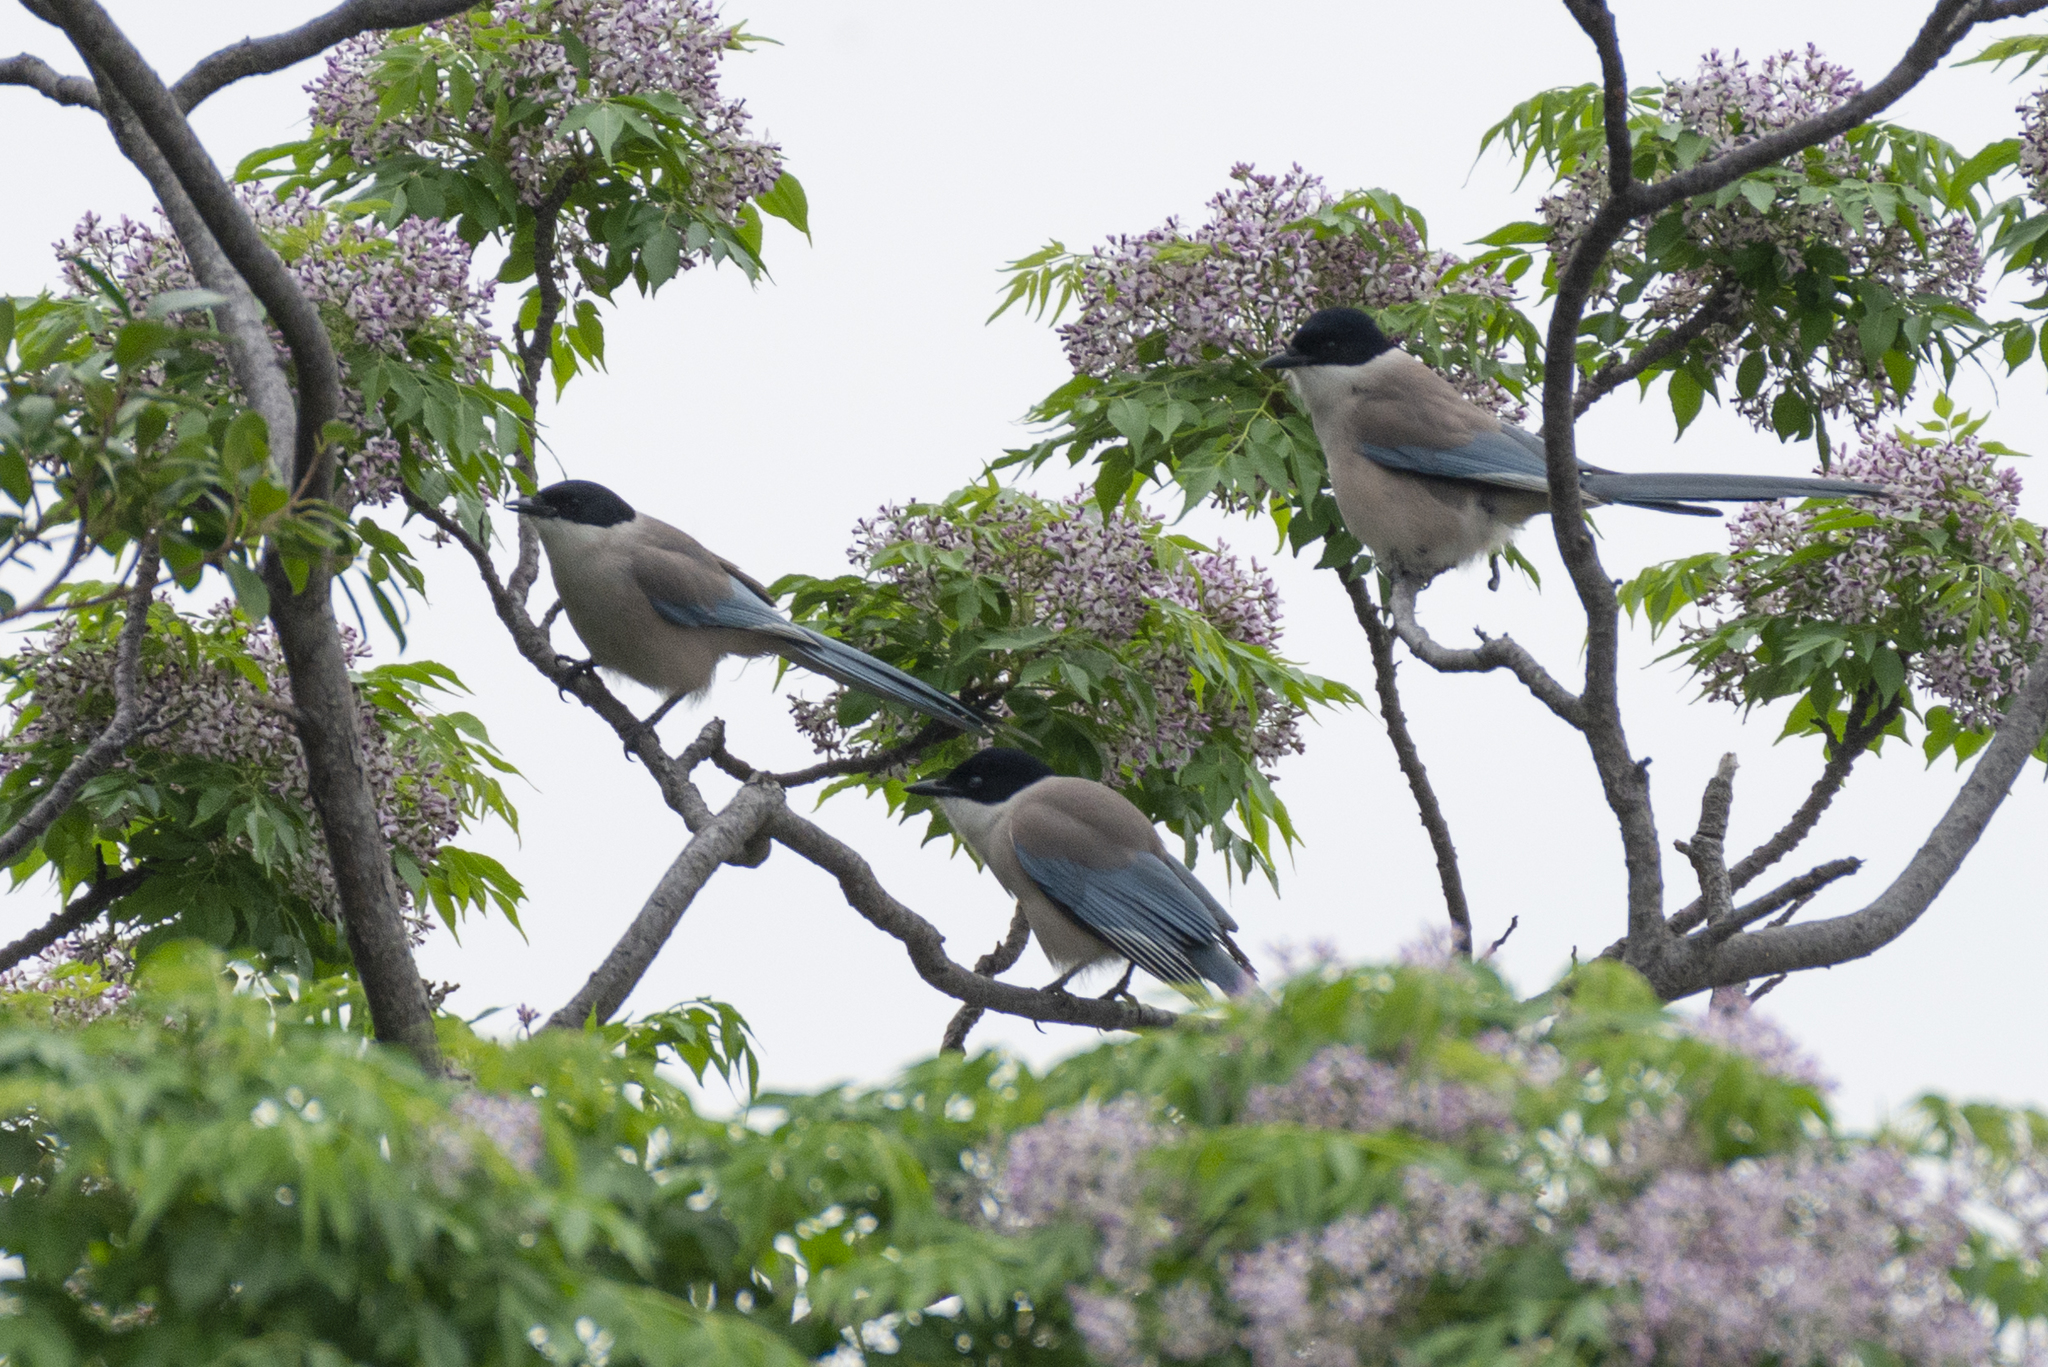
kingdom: Animalia
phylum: Chordata
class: Aves
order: Passeriformes
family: Corvidae
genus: Cyanopica
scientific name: Cyanopica cyanus
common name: Azure-winged magpie
